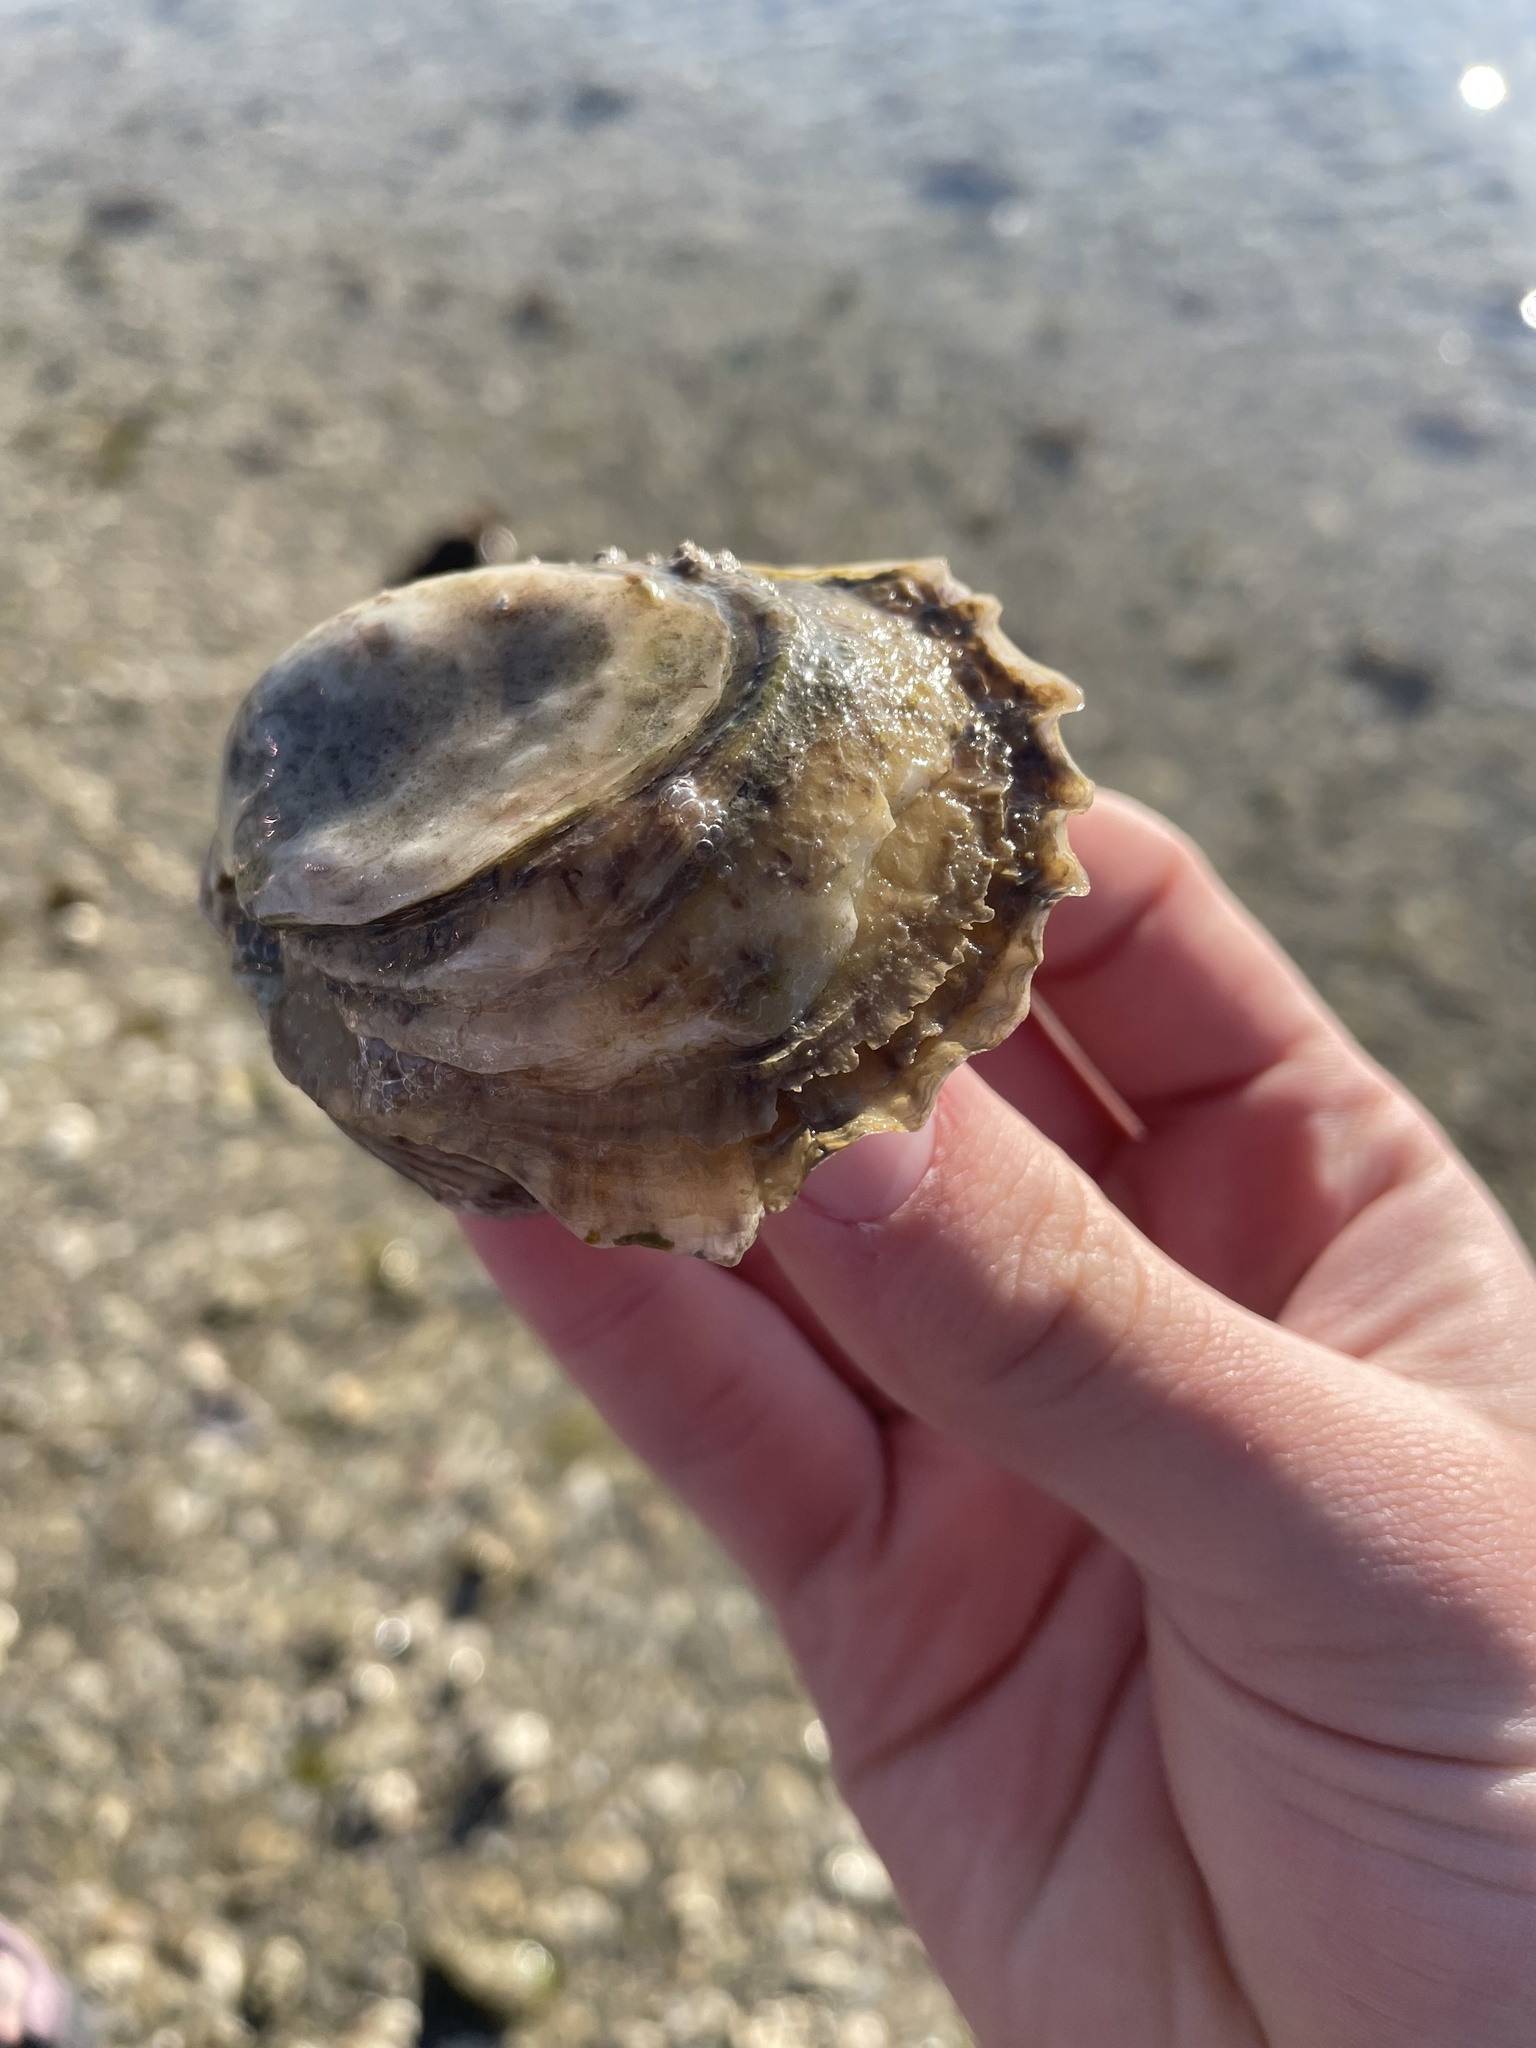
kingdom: Animalia
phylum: Mollusca
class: Bivalvia
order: Ostreida
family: Ostreidae
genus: Crassostrea
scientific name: Crassostrea virginica
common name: American oyster
